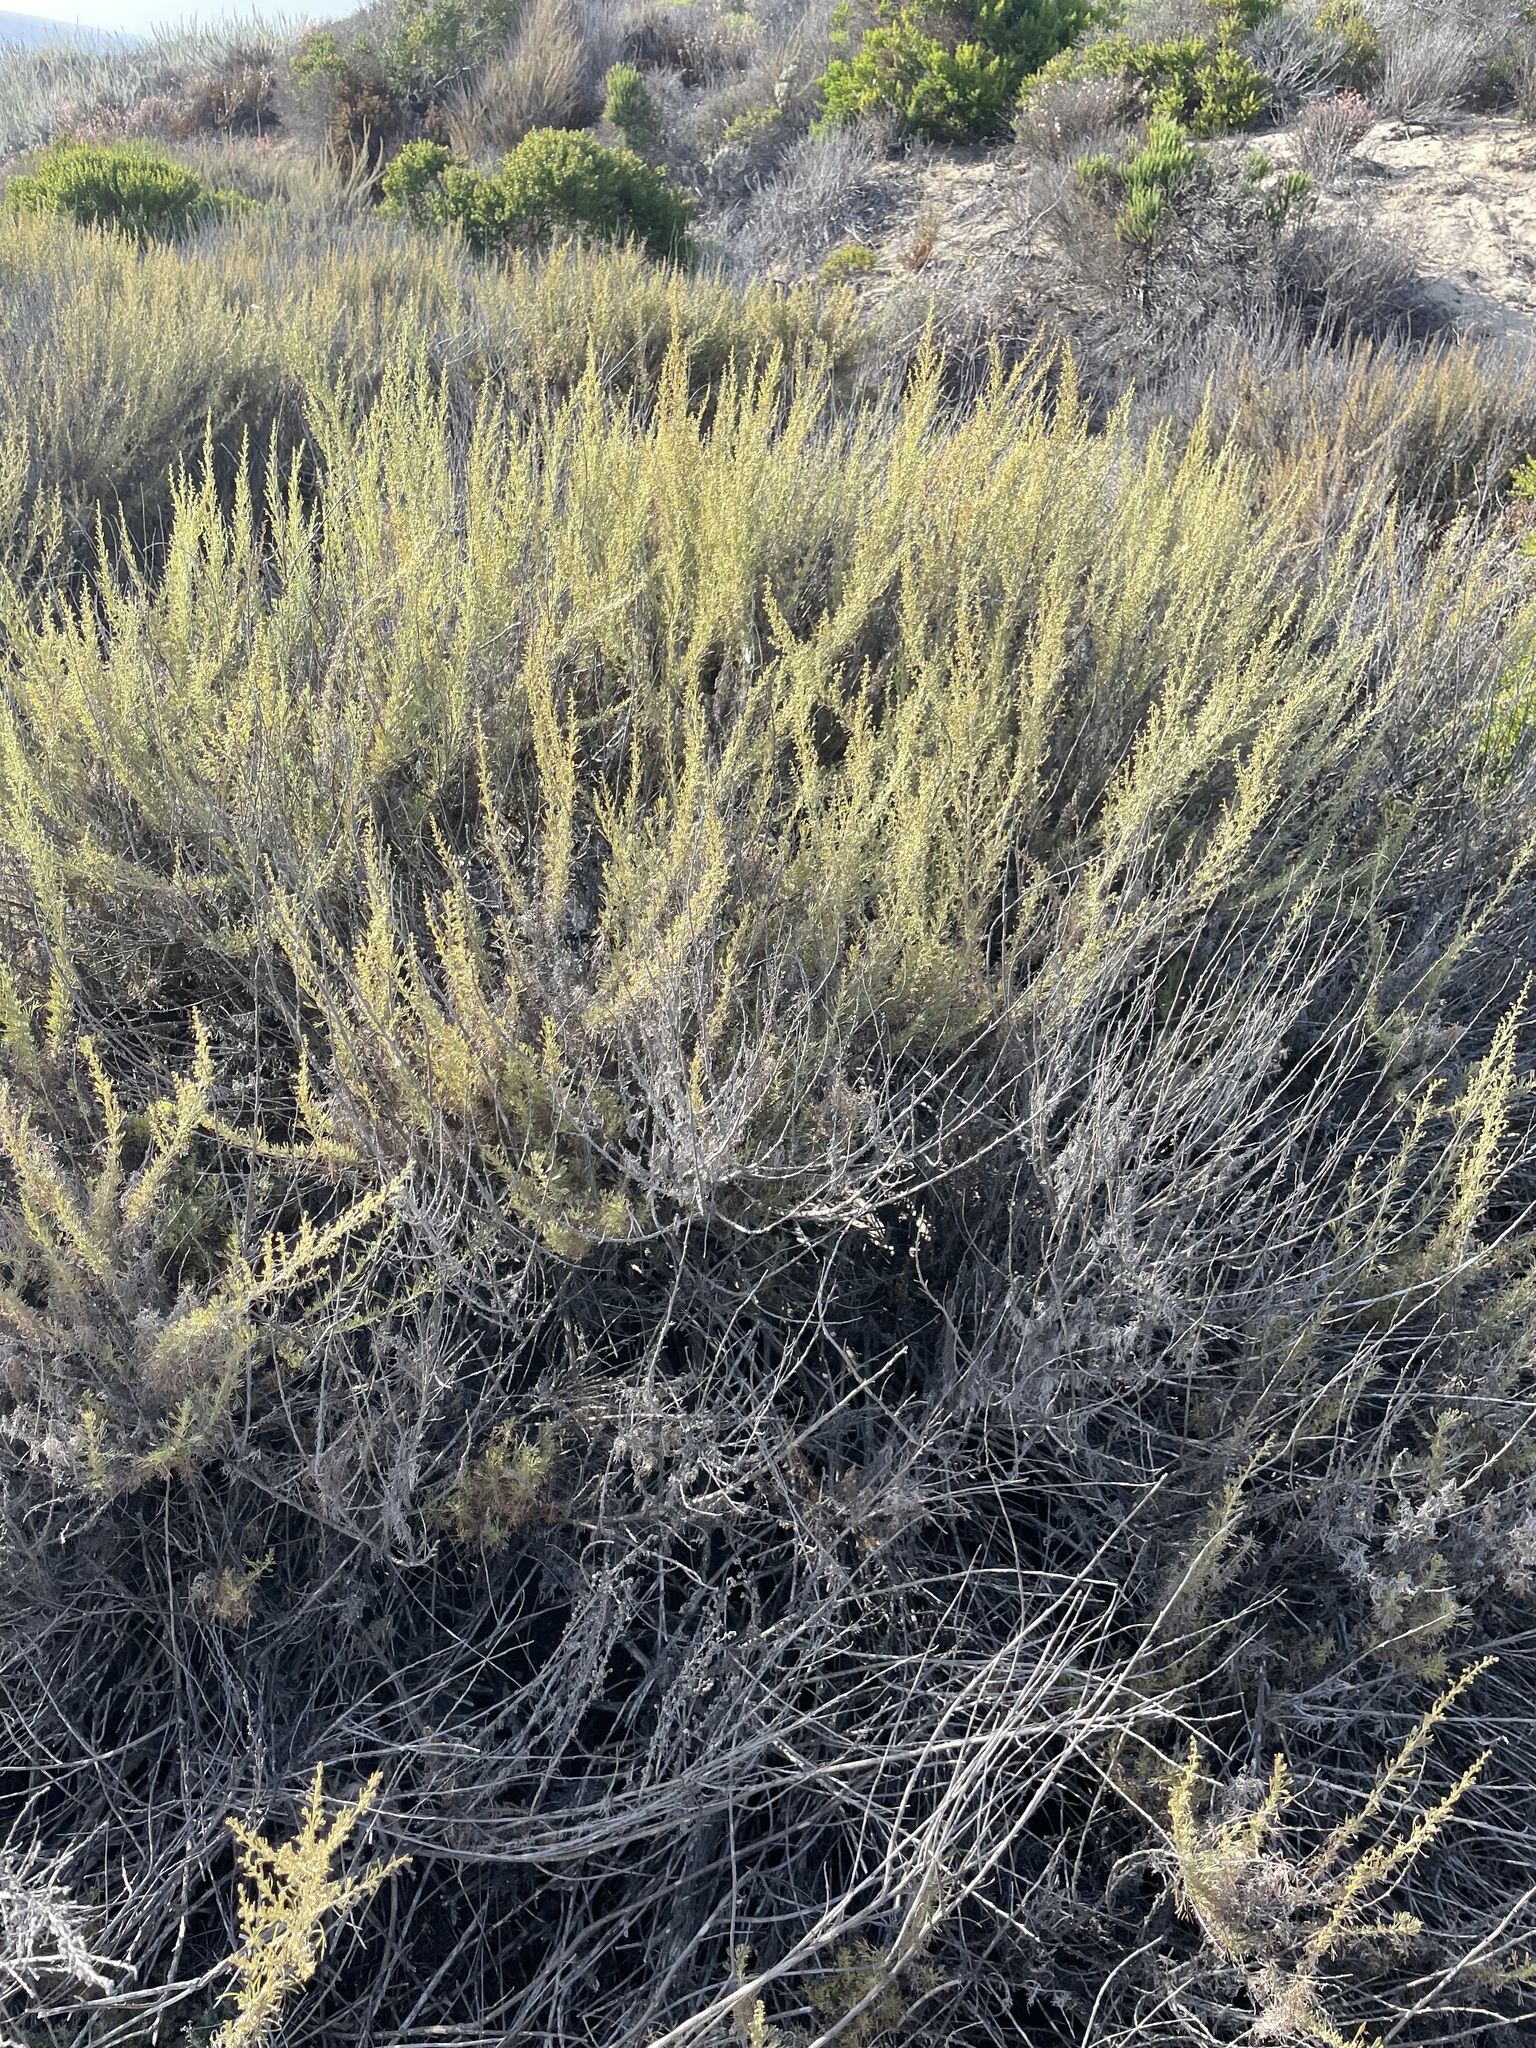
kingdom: Plantae
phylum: Tracheophyta
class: Magnoliopsida
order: Asterales
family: Asteraceae
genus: Artemisia
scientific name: Artemisia californica
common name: California sagebrush
